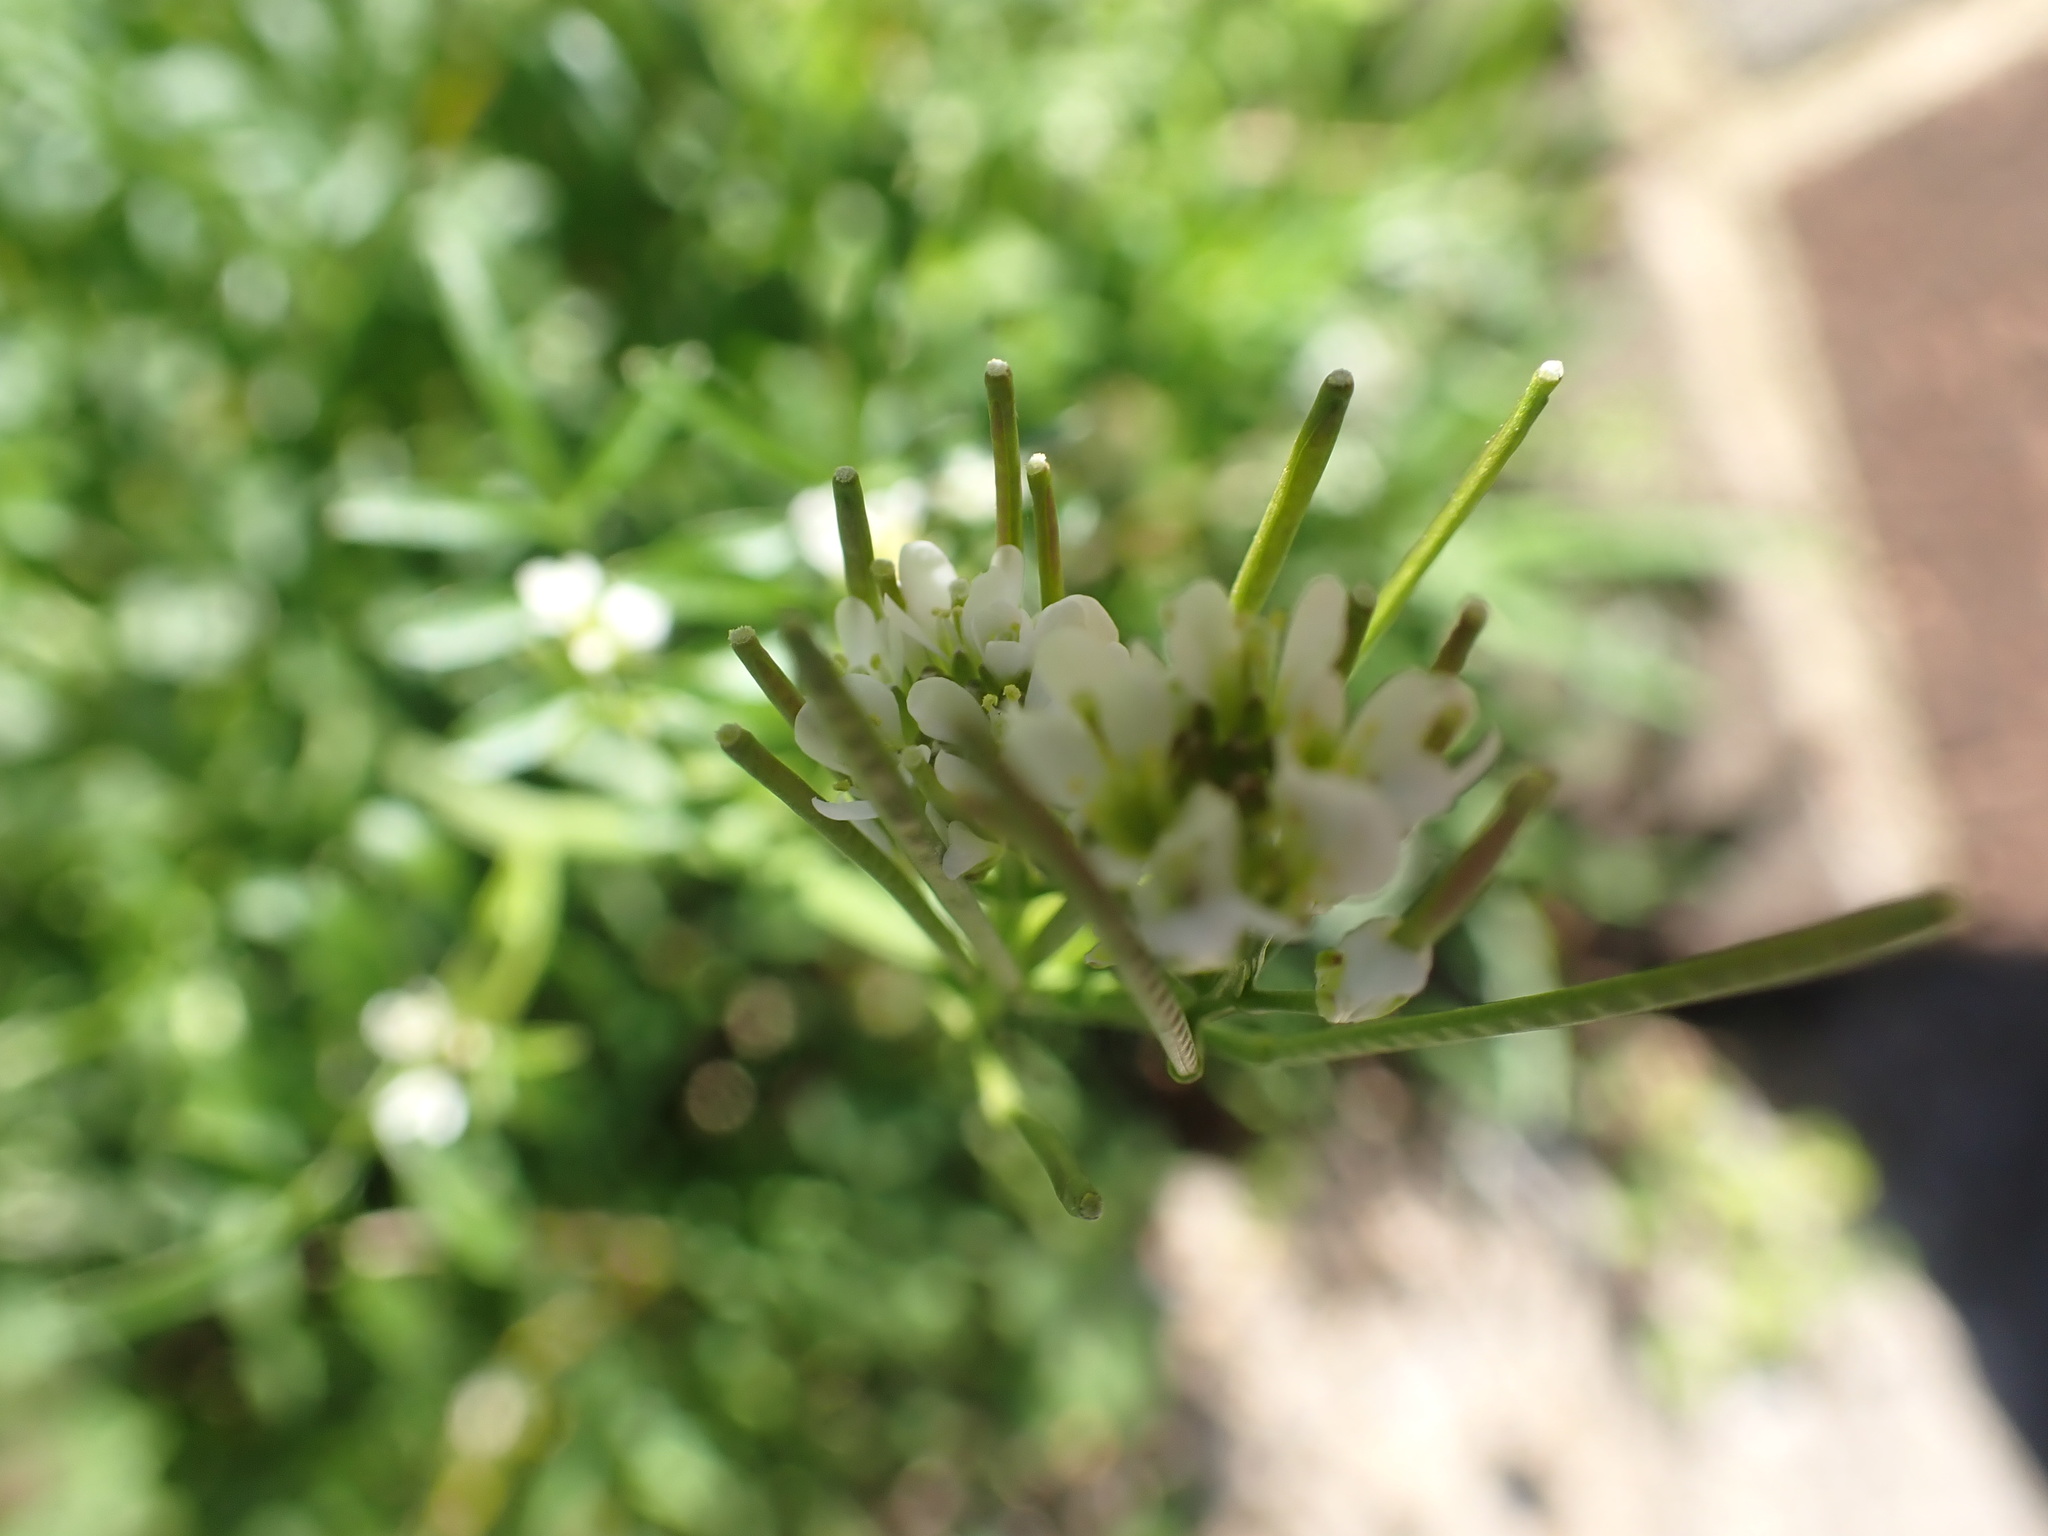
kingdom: Plantae
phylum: Tracheophyta
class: Magnoliopsida
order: Brassicales
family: Brassicaceae
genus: Cardamine
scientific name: Cardamine hirsuta
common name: Hairy bittercress
